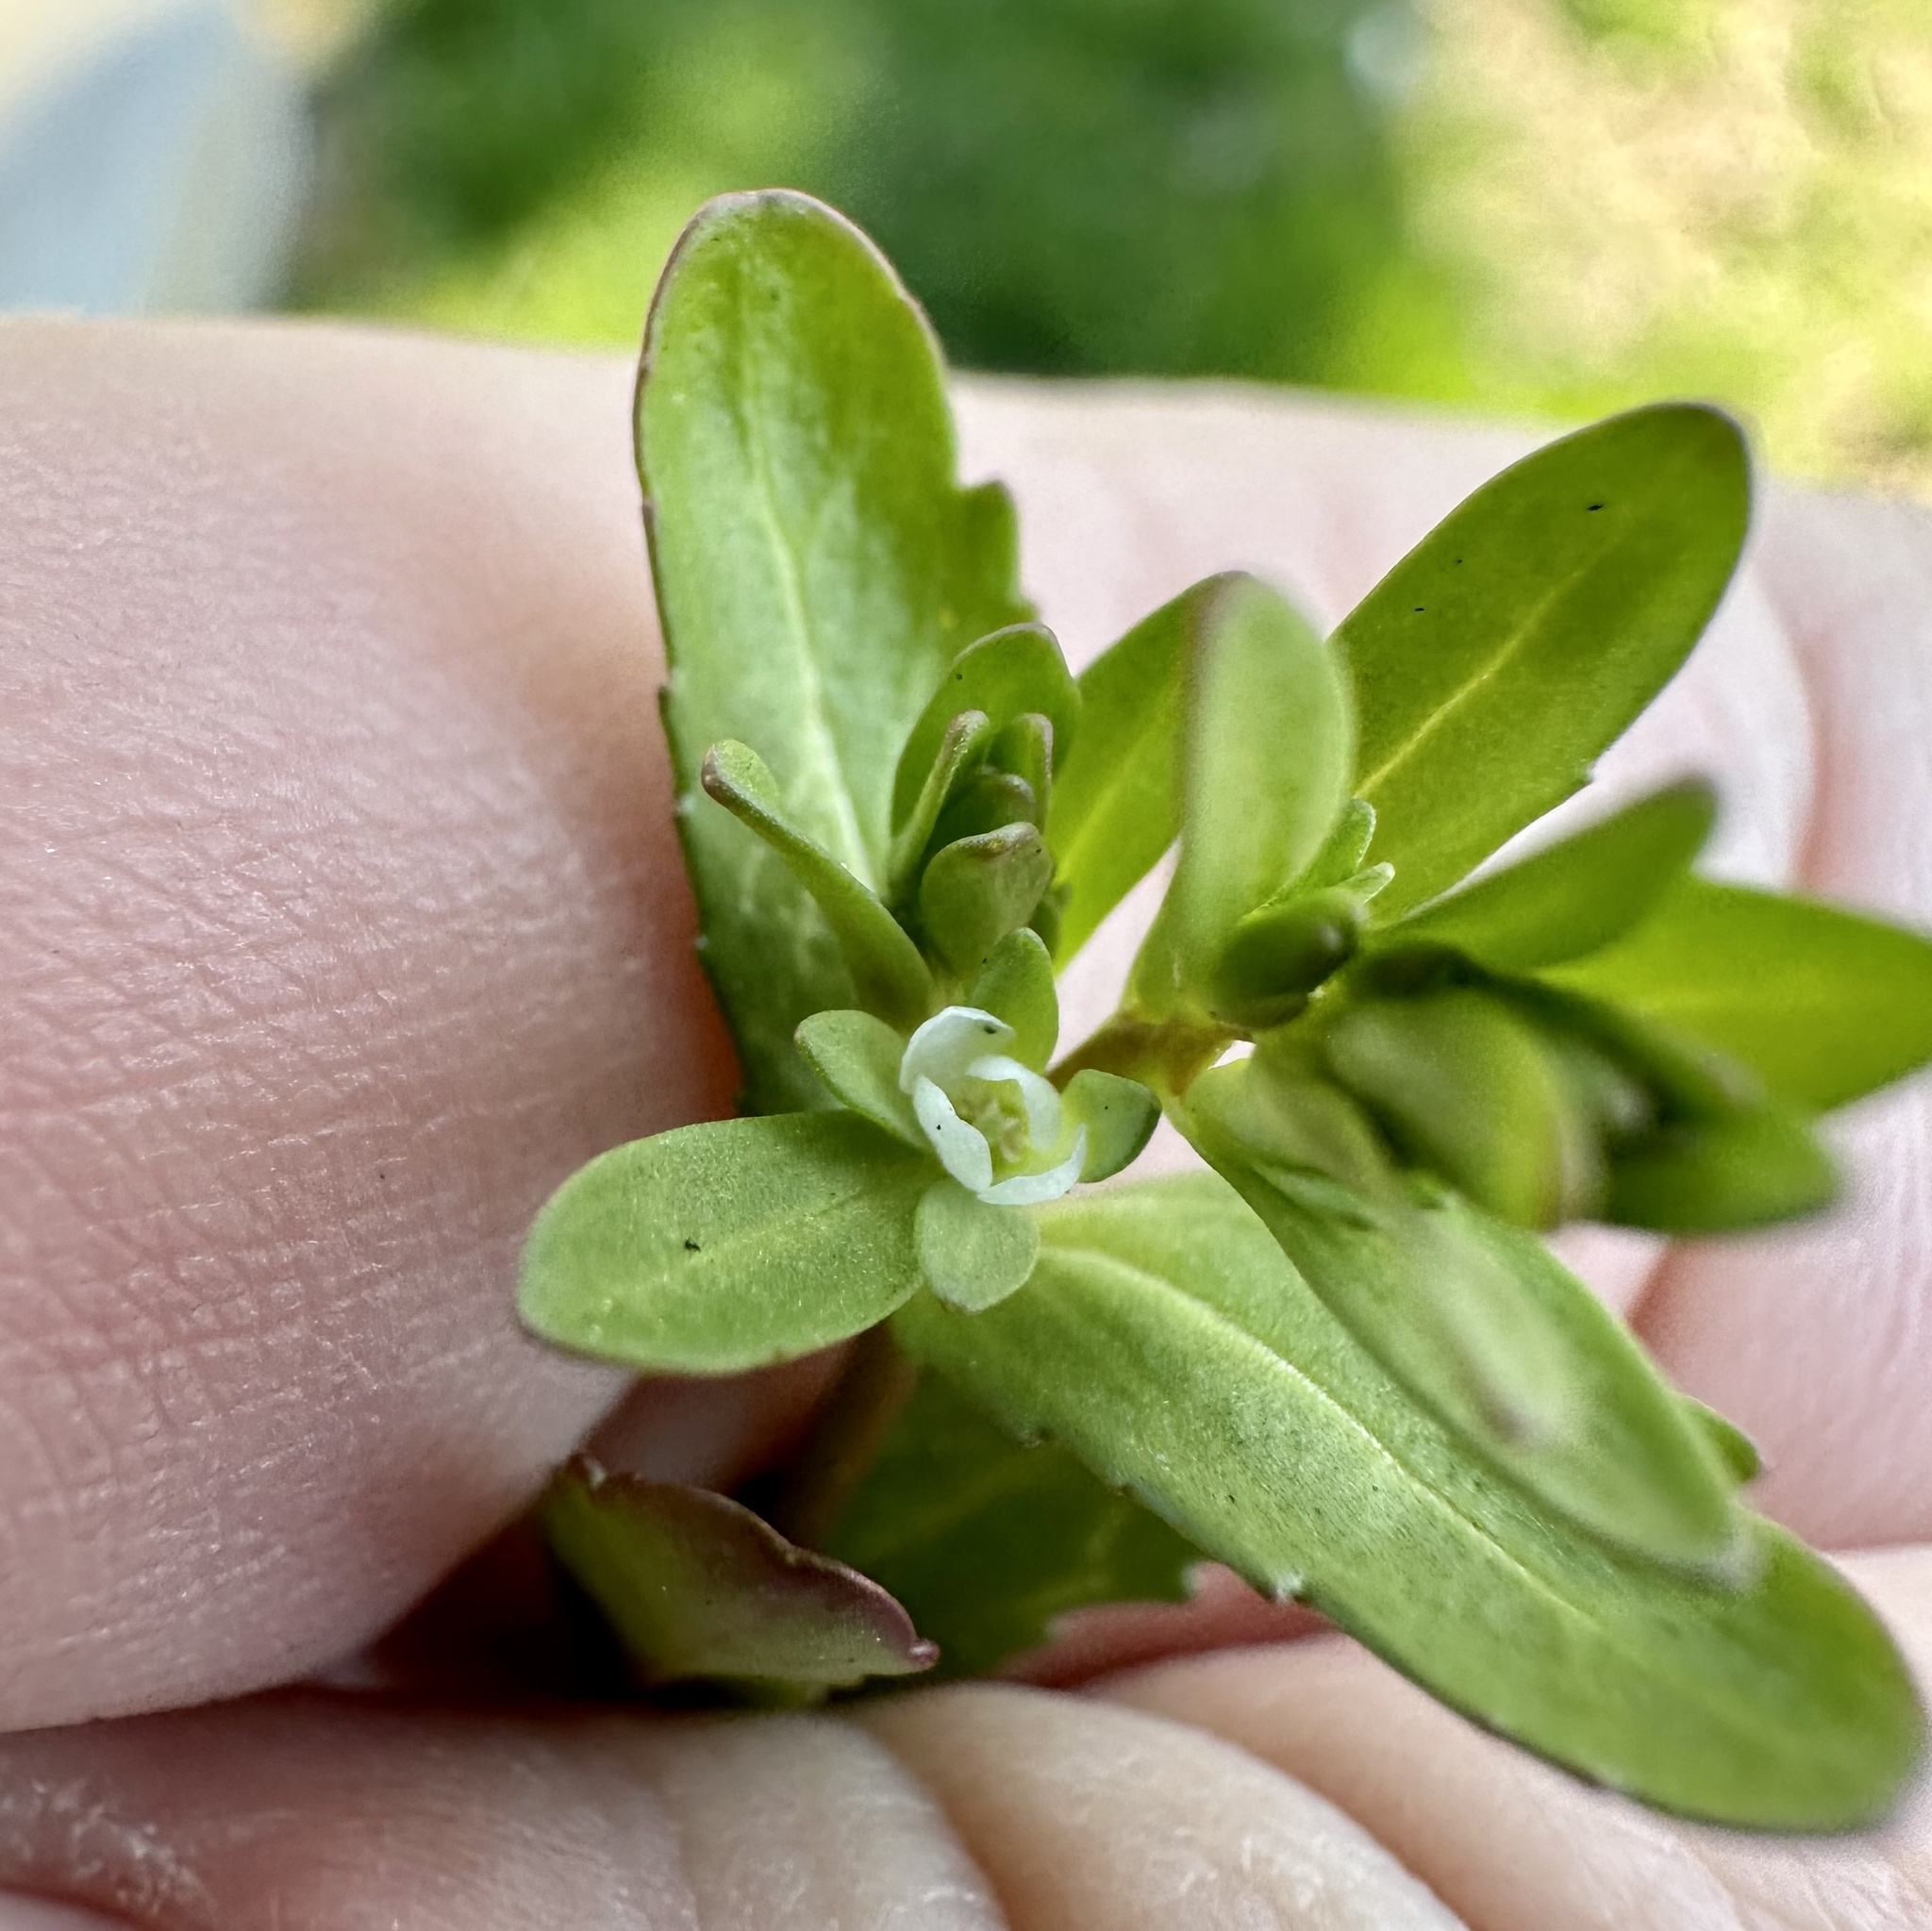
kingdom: Plantae
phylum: Tracheophyta
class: Magnoliopsida
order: Lamiales
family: Plantaginaceae
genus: Veronica
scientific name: Veronica peregrina
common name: Neckweed
